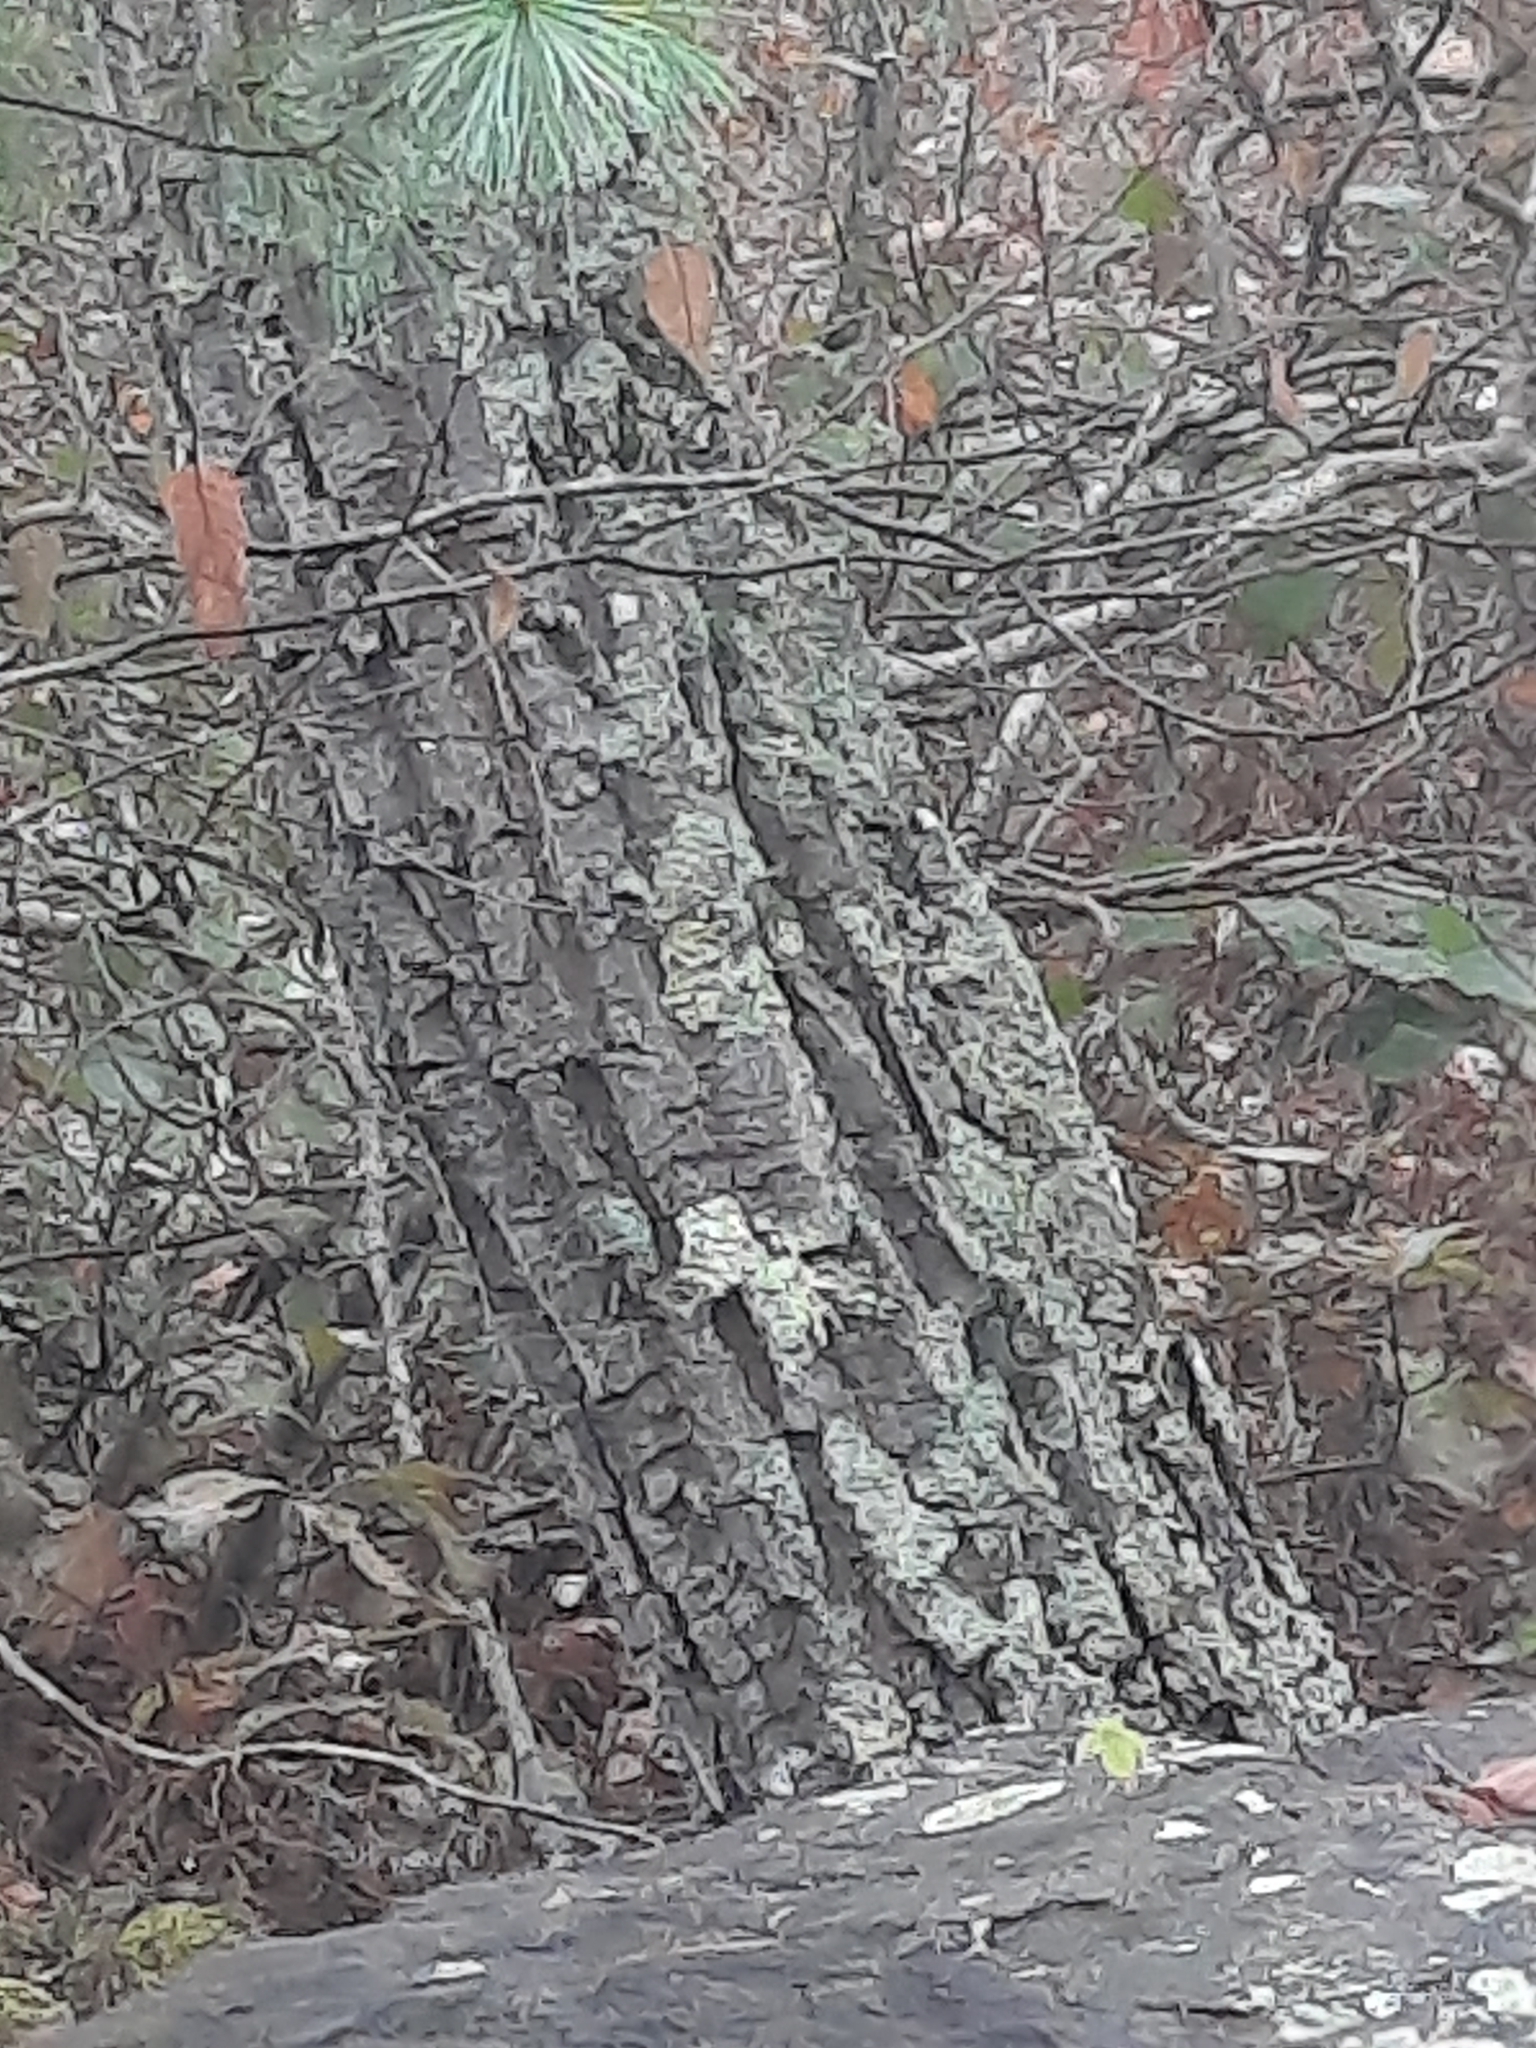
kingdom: Plantae
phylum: Tracheophyta
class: Magnoliopsida
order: Fagales
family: Fagaceae
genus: Quercus
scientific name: Quercus montana
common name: Chestnut oak
